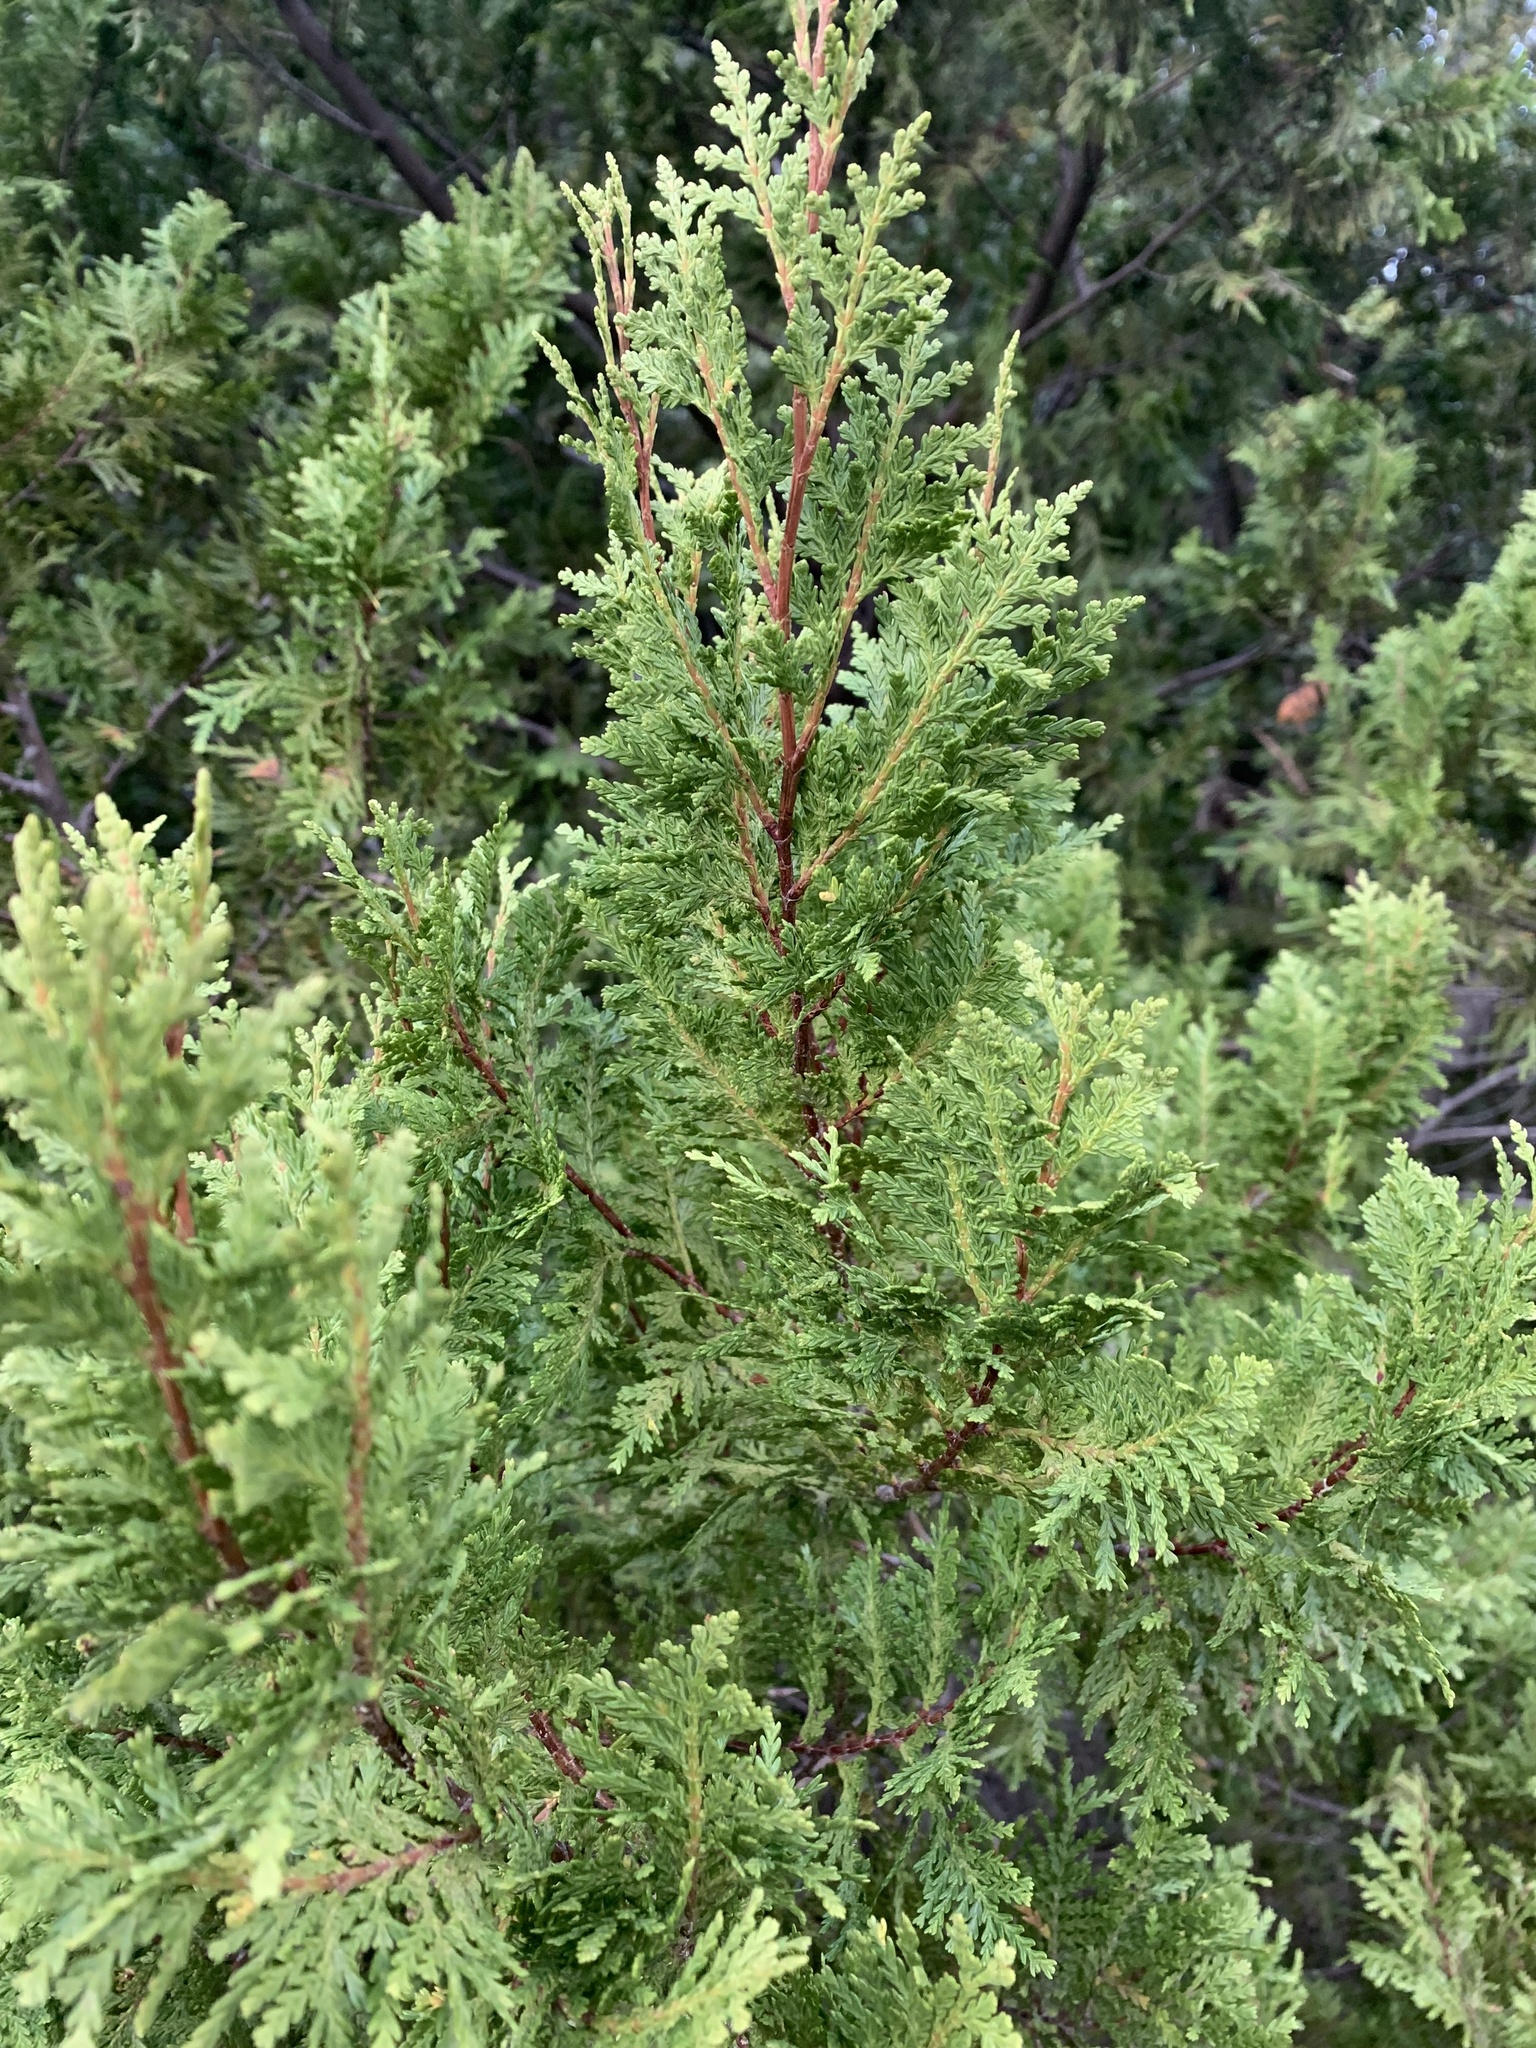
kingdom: Plantae
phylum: Tracheophyta
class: Pinopsida
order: Pinales
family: Cupressaceae
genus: Austrocedrus
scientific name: Austrocedrus chilensis
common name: Chilean incense-cedar
